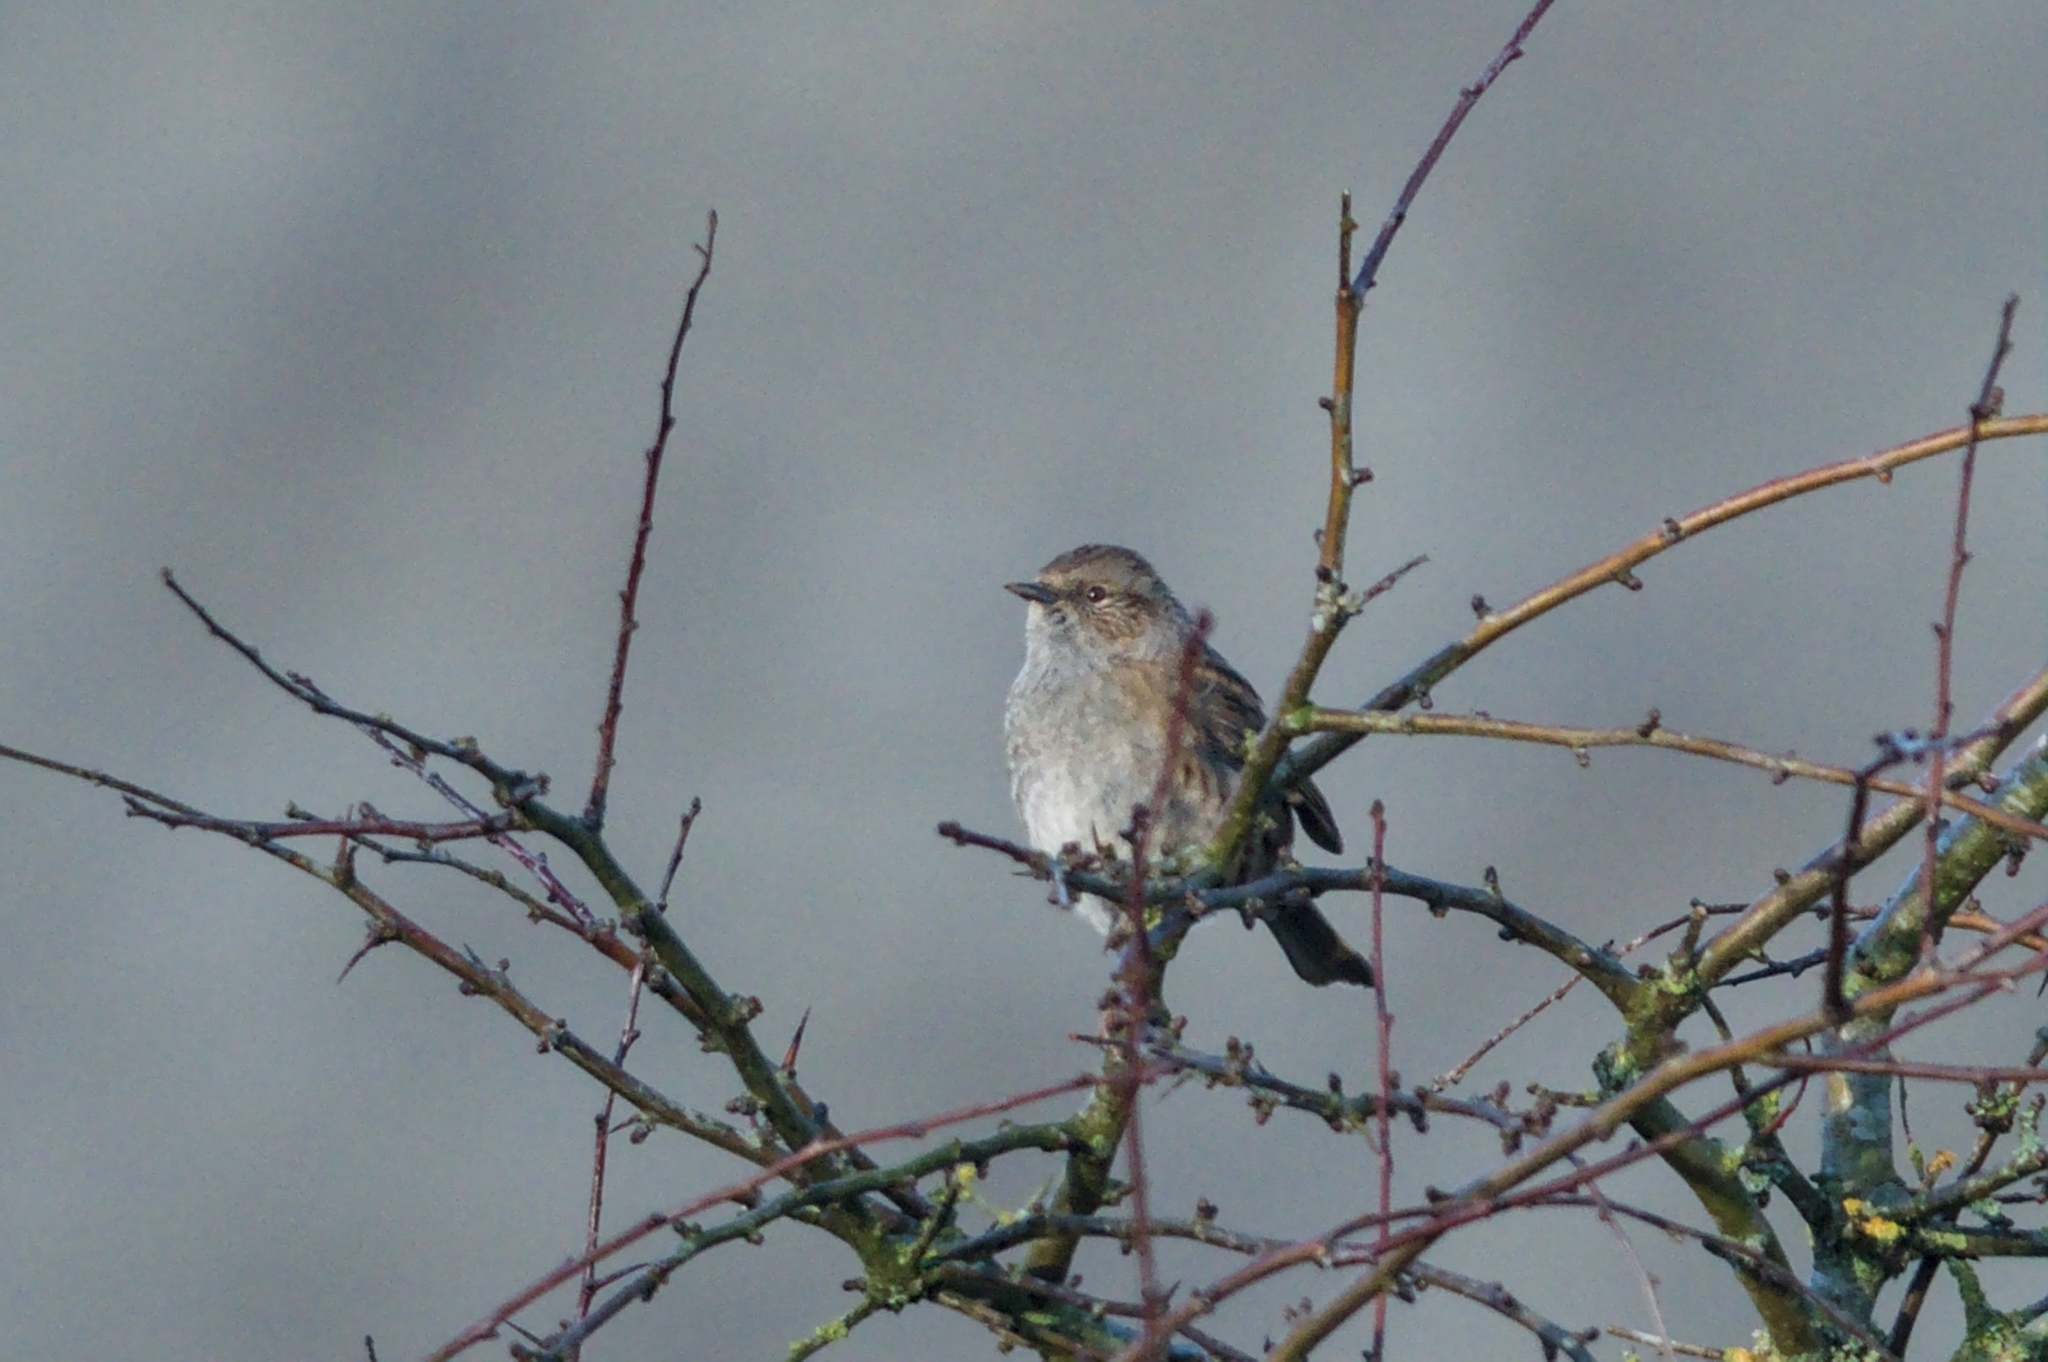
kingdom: Animalia
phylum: Chordata
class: Aves
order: Passeriformes
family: Prunellidae
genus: Prunella
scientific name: Prunella modularis
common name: Dunnock
